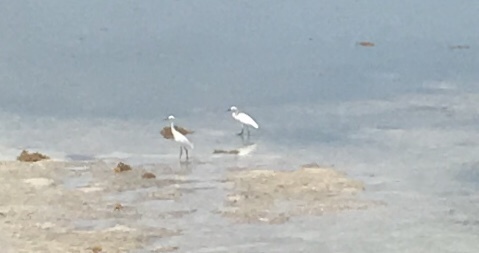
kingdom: Animalia
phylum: Chordata
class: Aves
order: Pelecaniformes
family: Ardeidae
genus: Egretta
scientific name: Egretta thula
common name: Snowy egret
